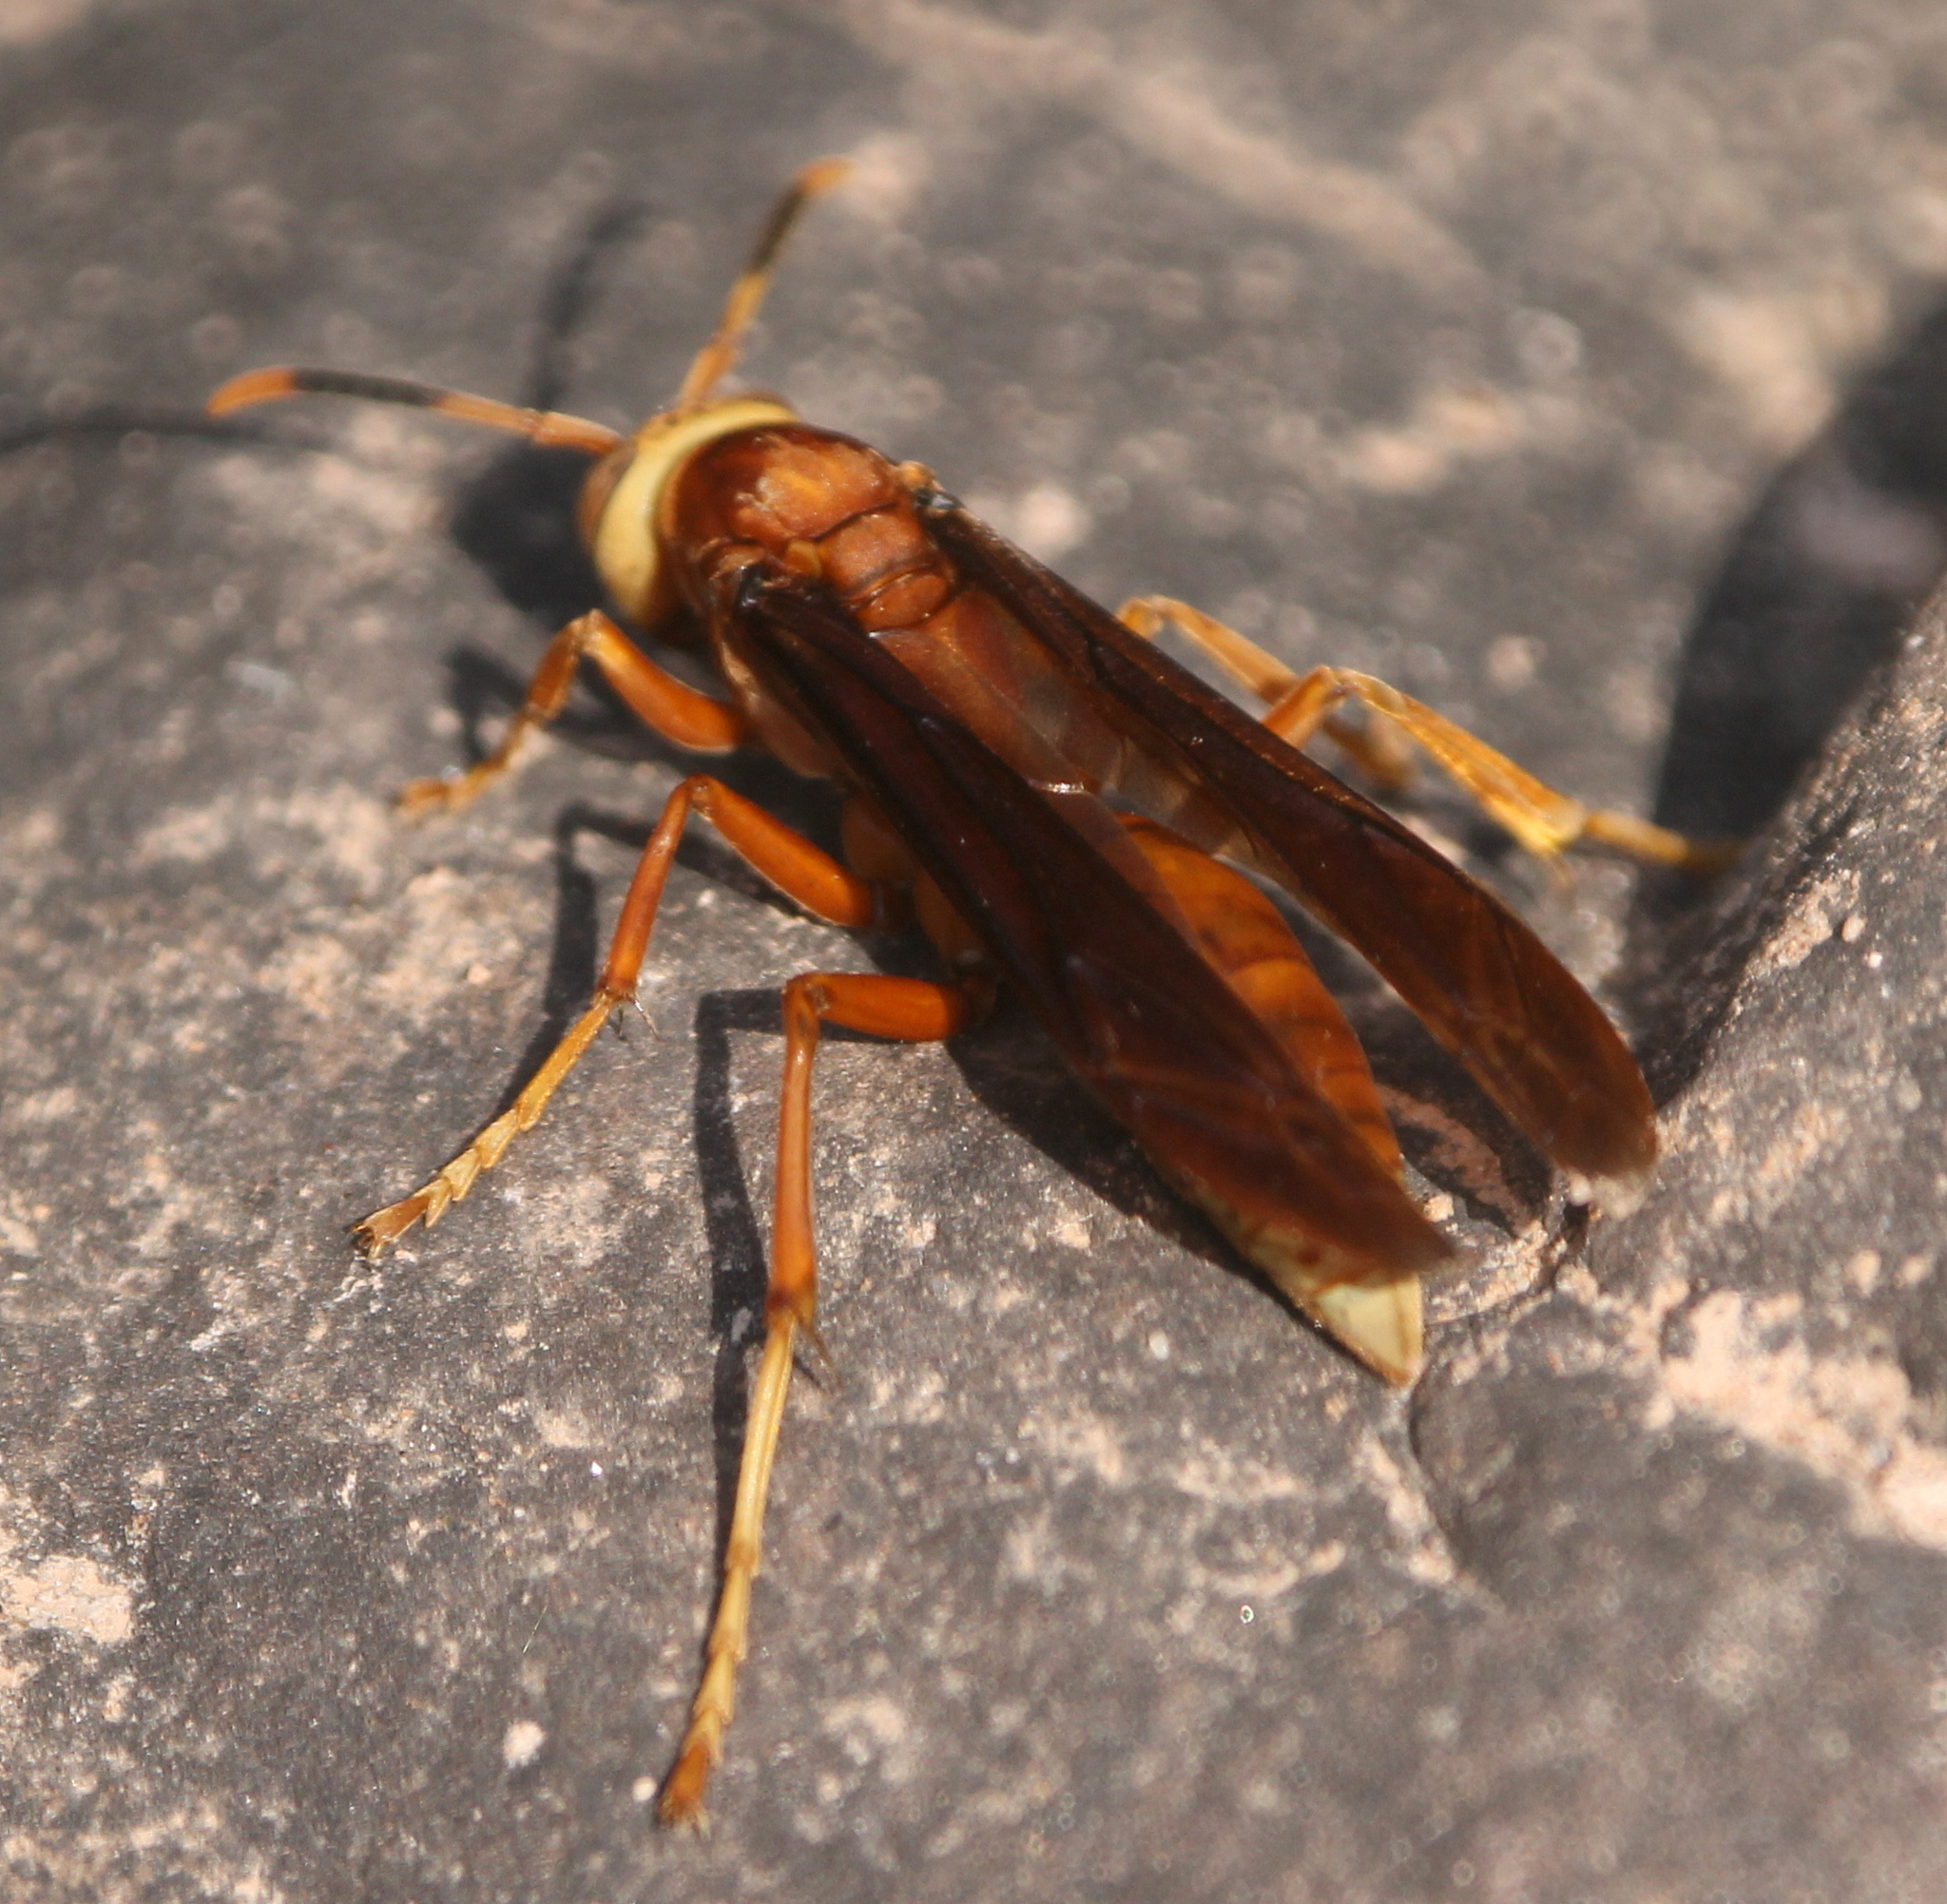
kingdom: Animalia
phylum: Arthropoda
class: Insecta
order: Hymenoptera
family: Eumenidae
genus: Polistes
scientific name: Polistes cavapyta
